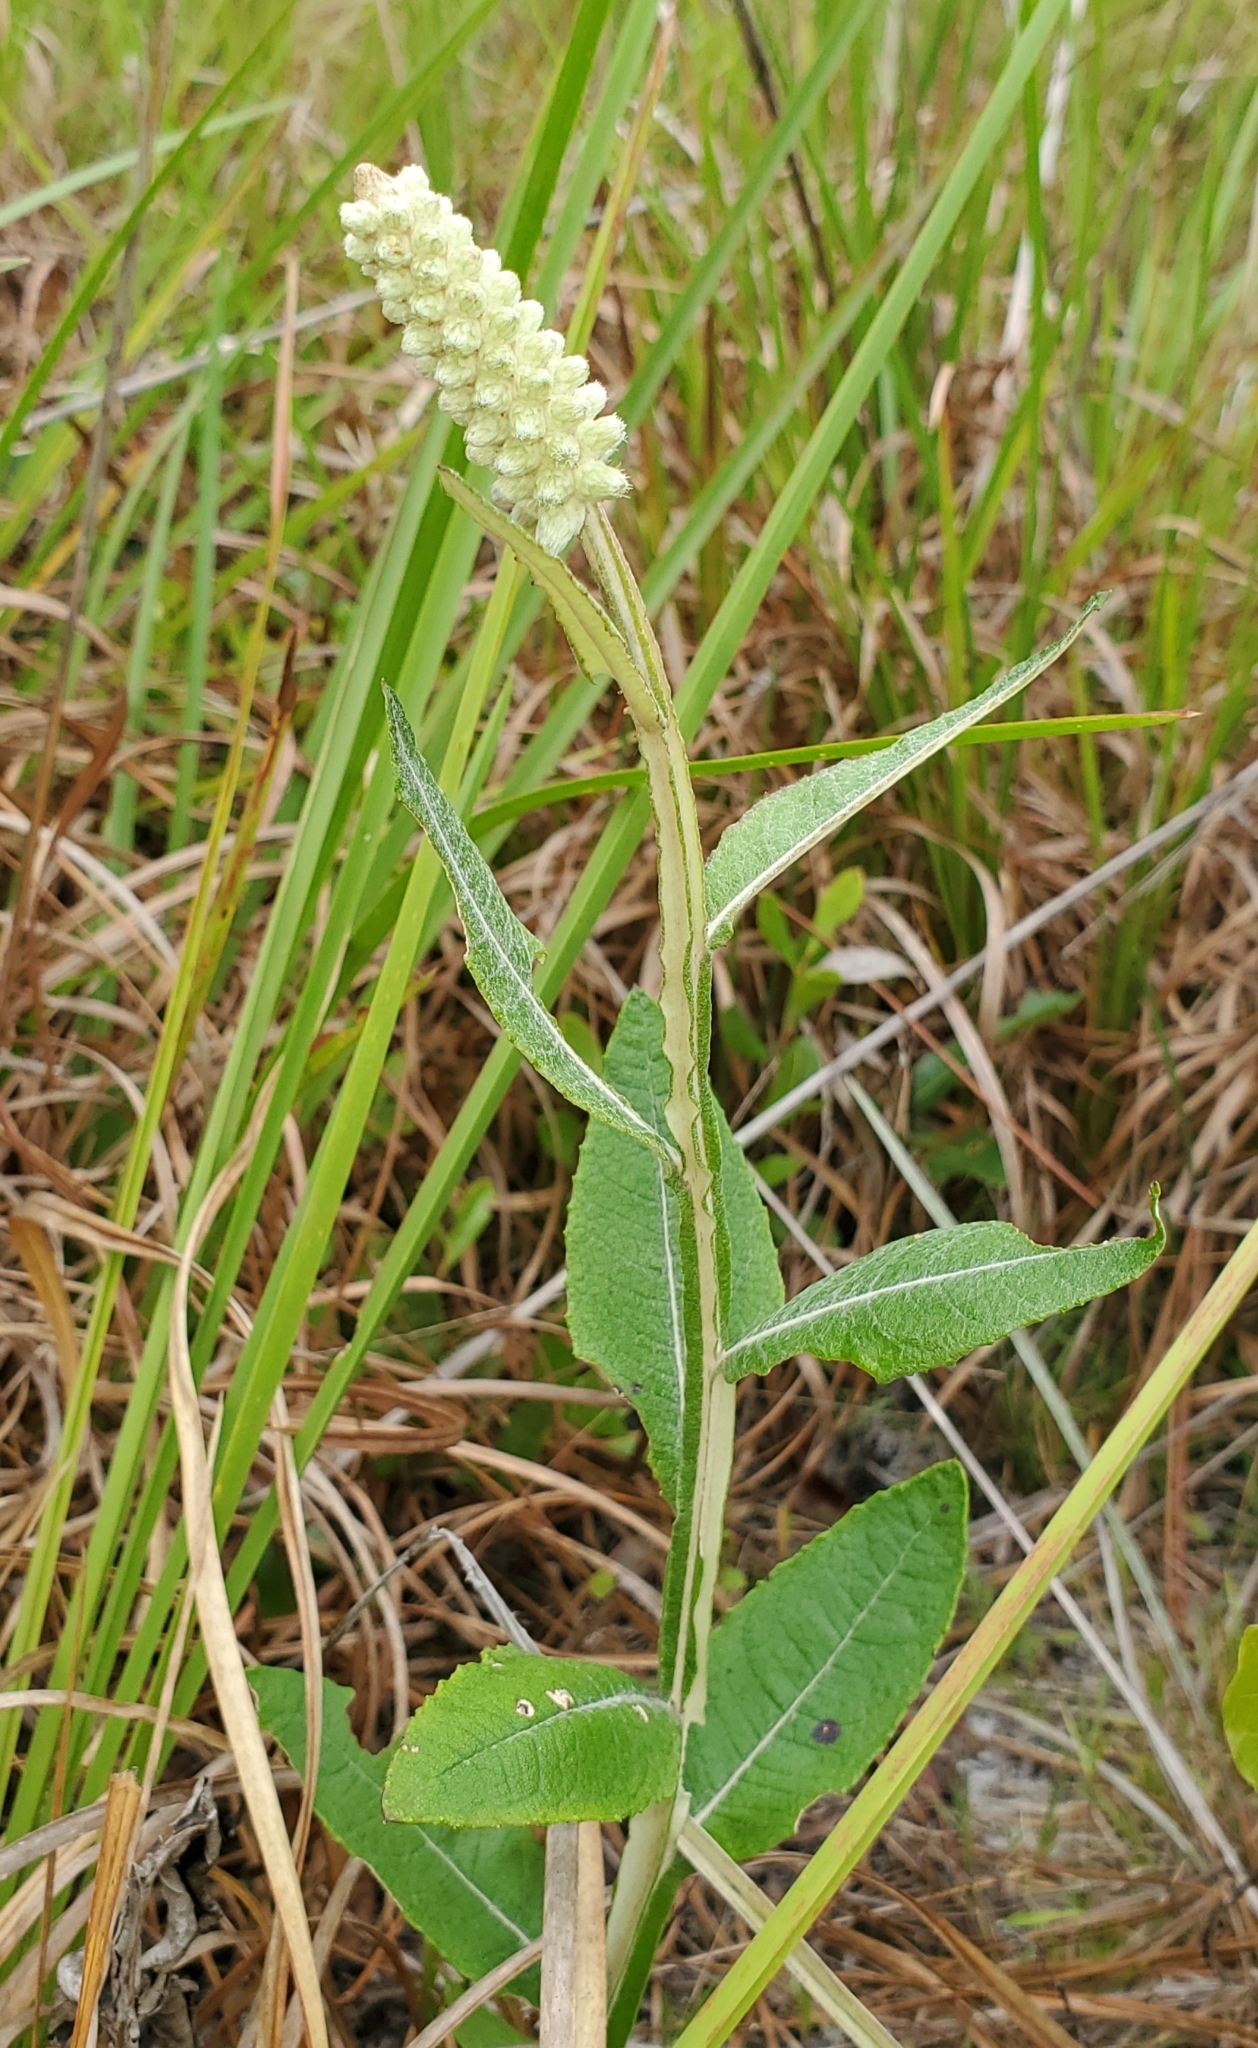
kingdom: Plantae
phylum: Tracheophyta
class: Magnoliopsida
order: Asterales
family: Asteraceae
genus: Pterocaulon
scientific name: Pterocaulon pycnostachyum
